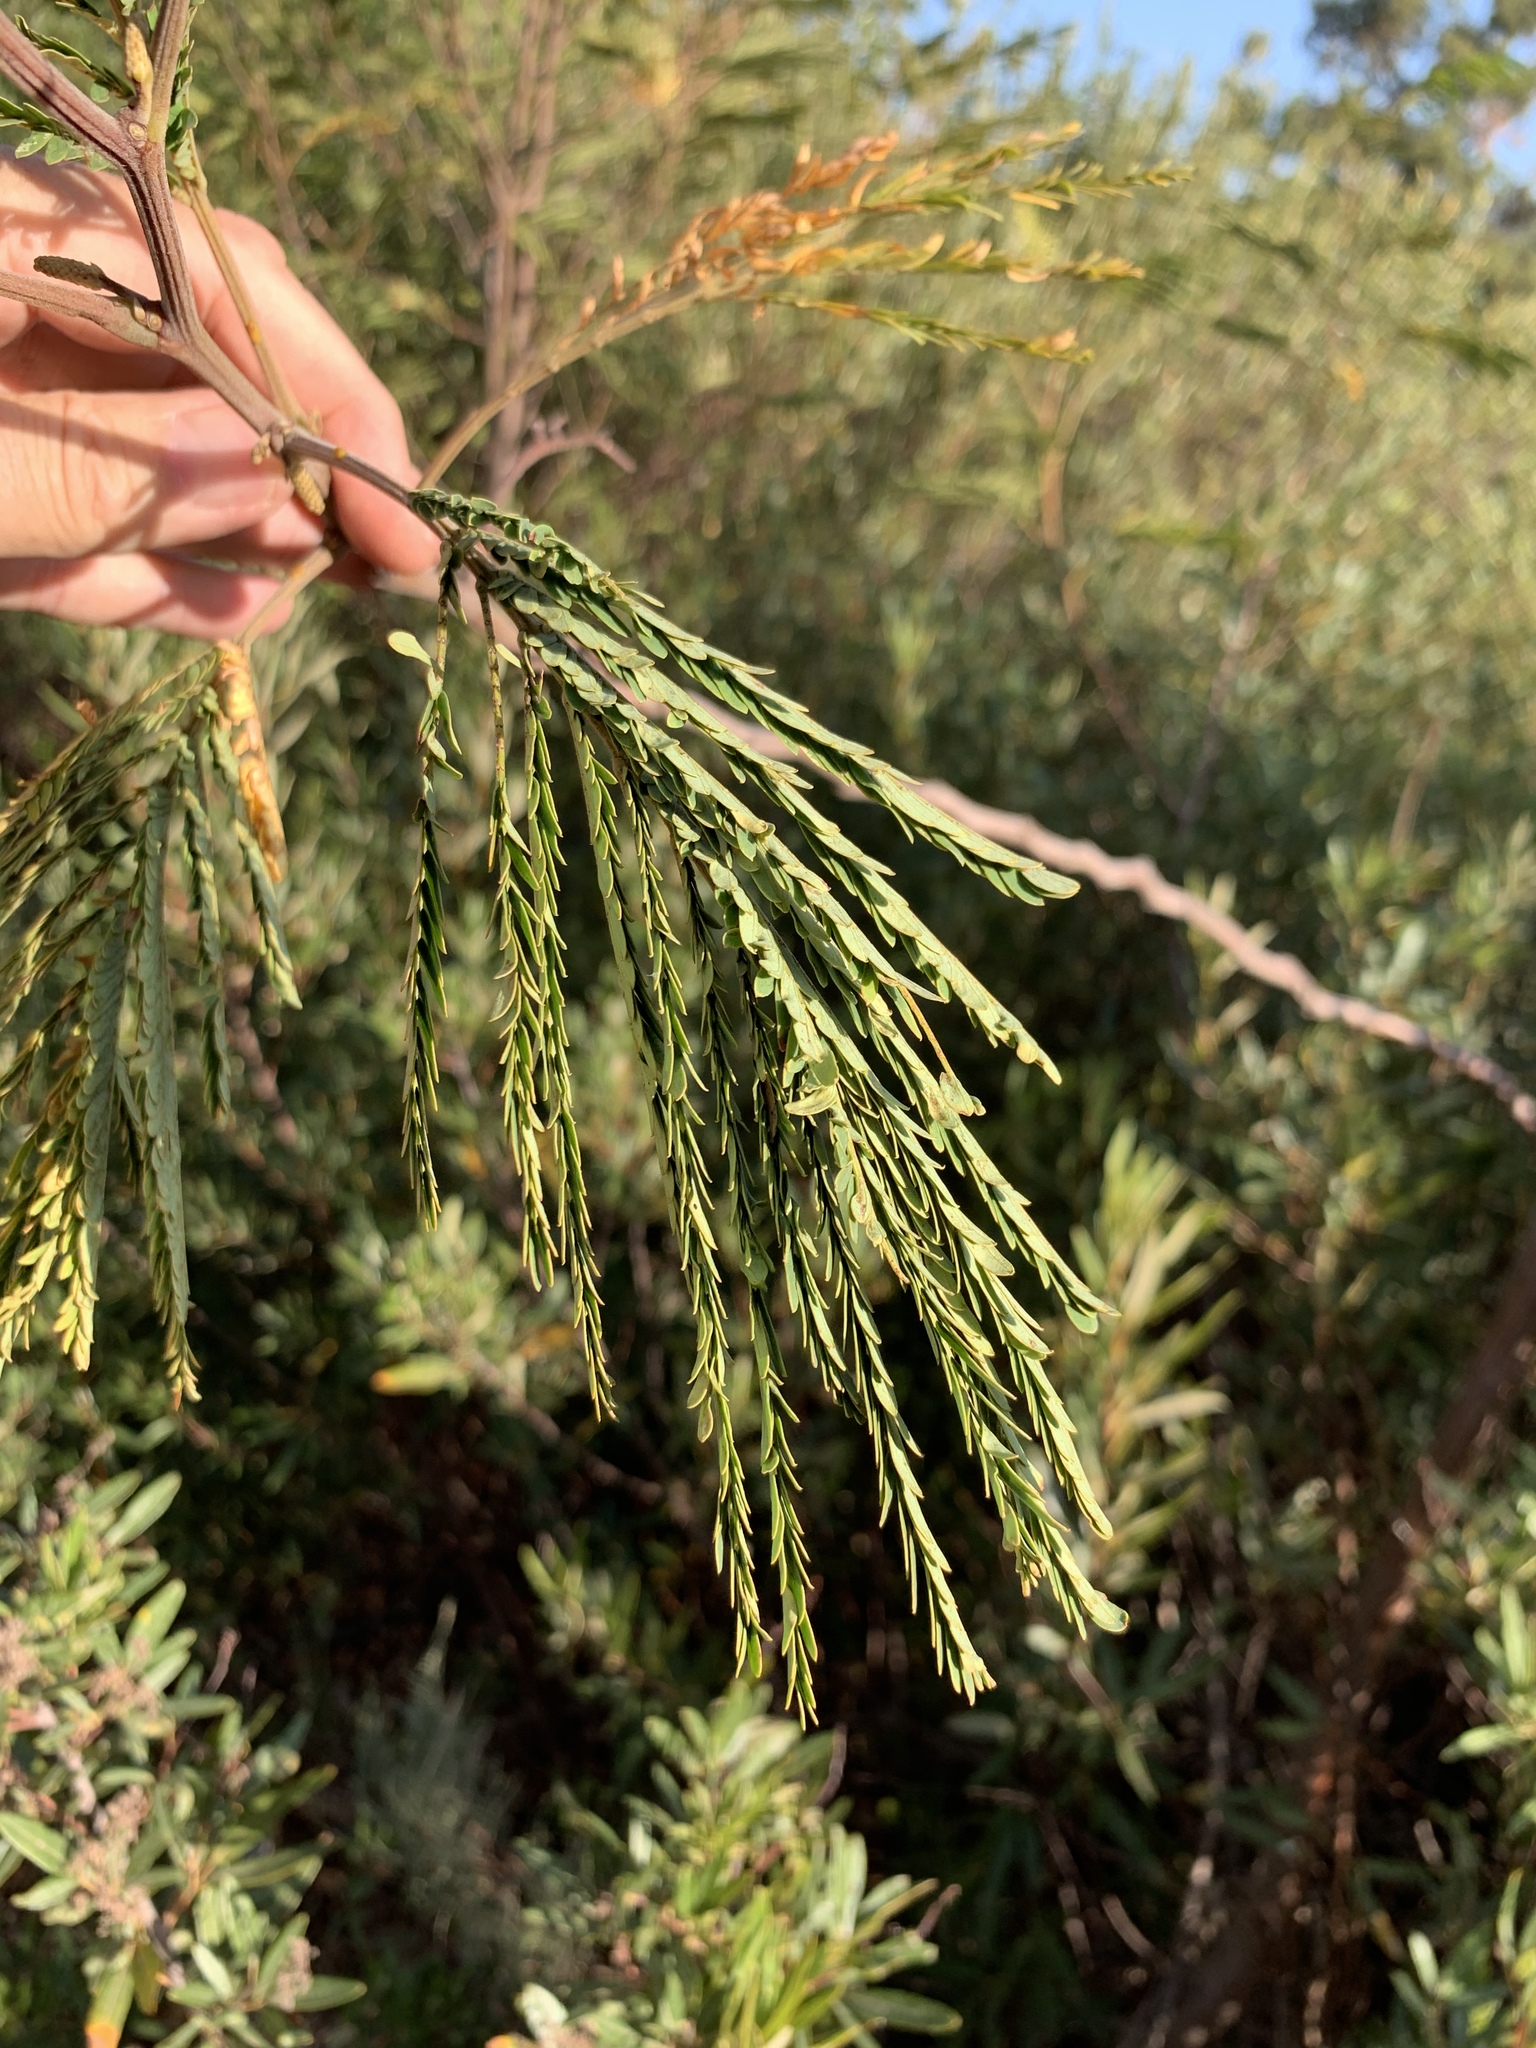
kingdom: Plantae
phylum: Tracheophyta
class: Magnoliopsida
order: Fabales
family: Fabaceae
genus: Paraserianthes
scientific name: Paraserianthes lophantha
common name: Plume albizia
